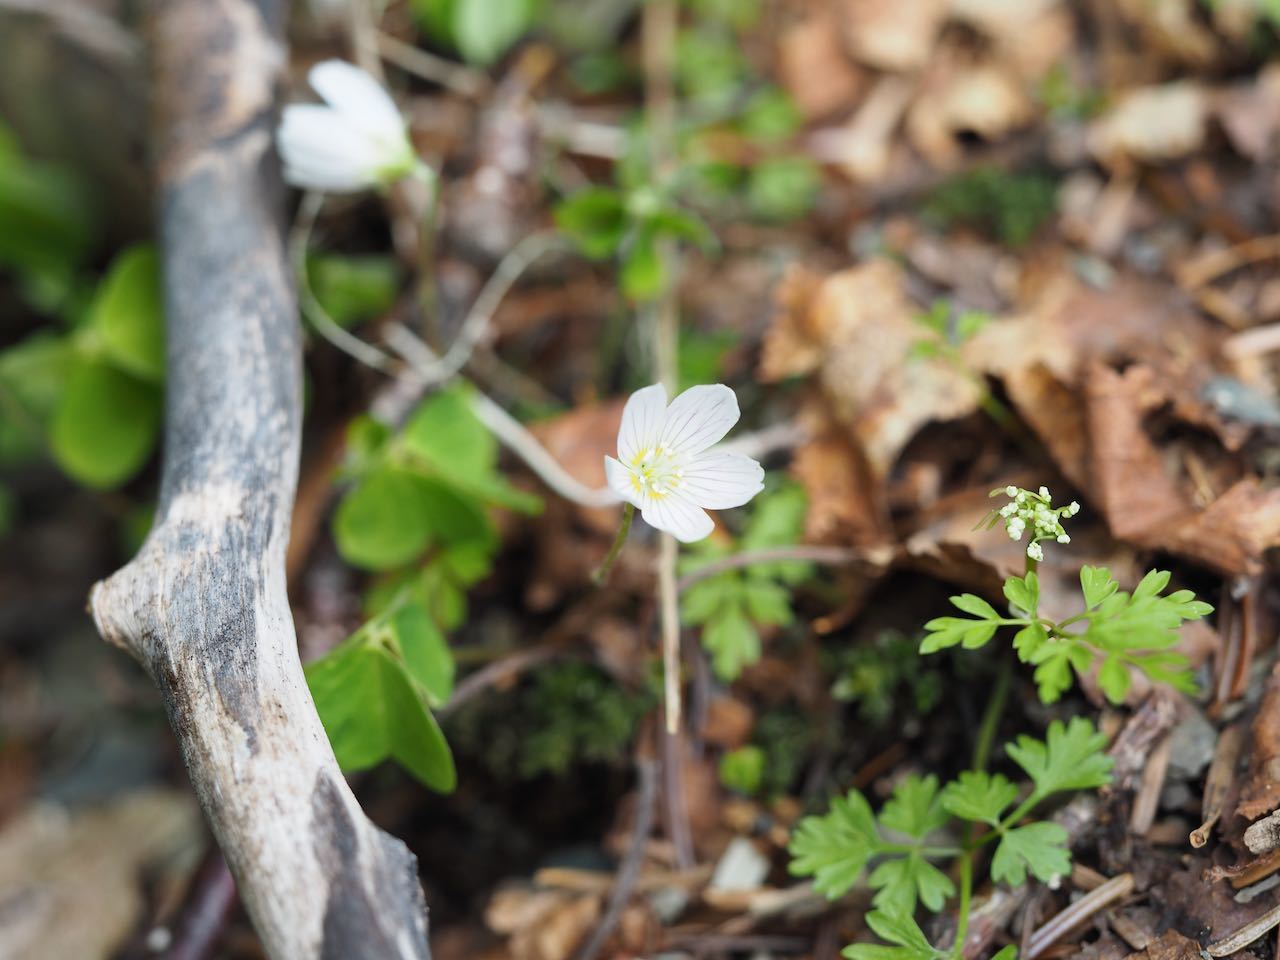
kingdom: Plantae
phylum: Tracheophyta
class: Magnoliopsida
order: Oxalidales
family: Oxalidaceae
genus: Oxalis
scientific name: Oxalis acetosella
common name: Wood-sorrel
